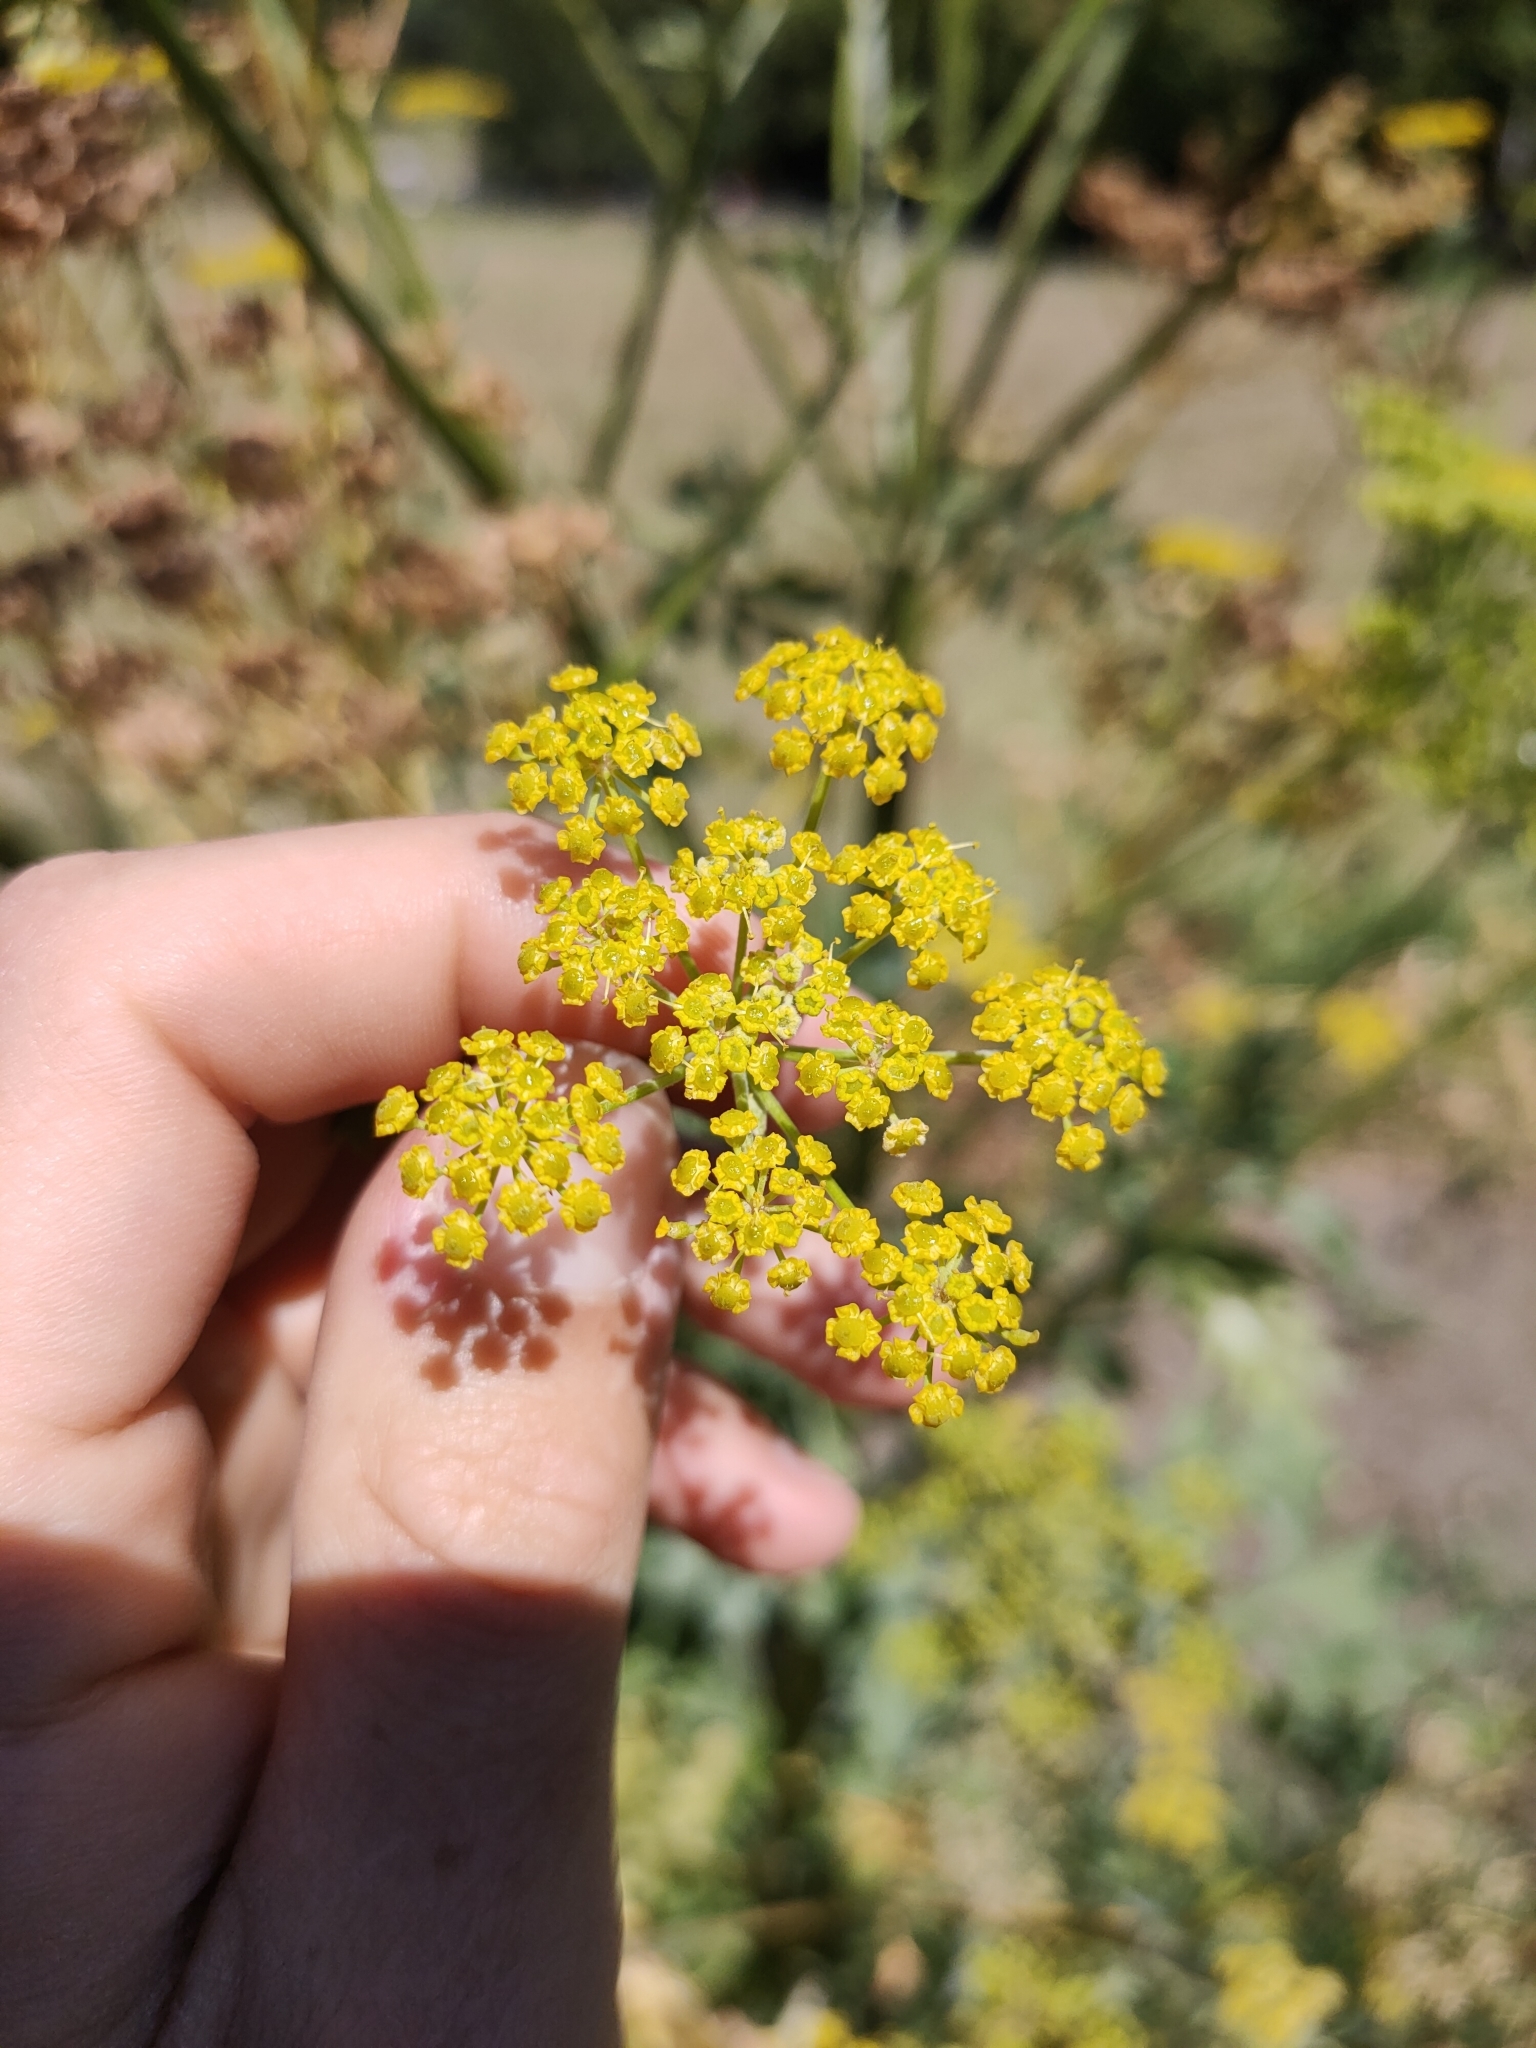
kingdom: Plantae
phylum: Tracheophyta
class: Magnoliopsida
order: Apiales
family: Apiaceae
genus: Pastinaca
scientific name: Pastinaca sativa
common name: Wild parsnip
